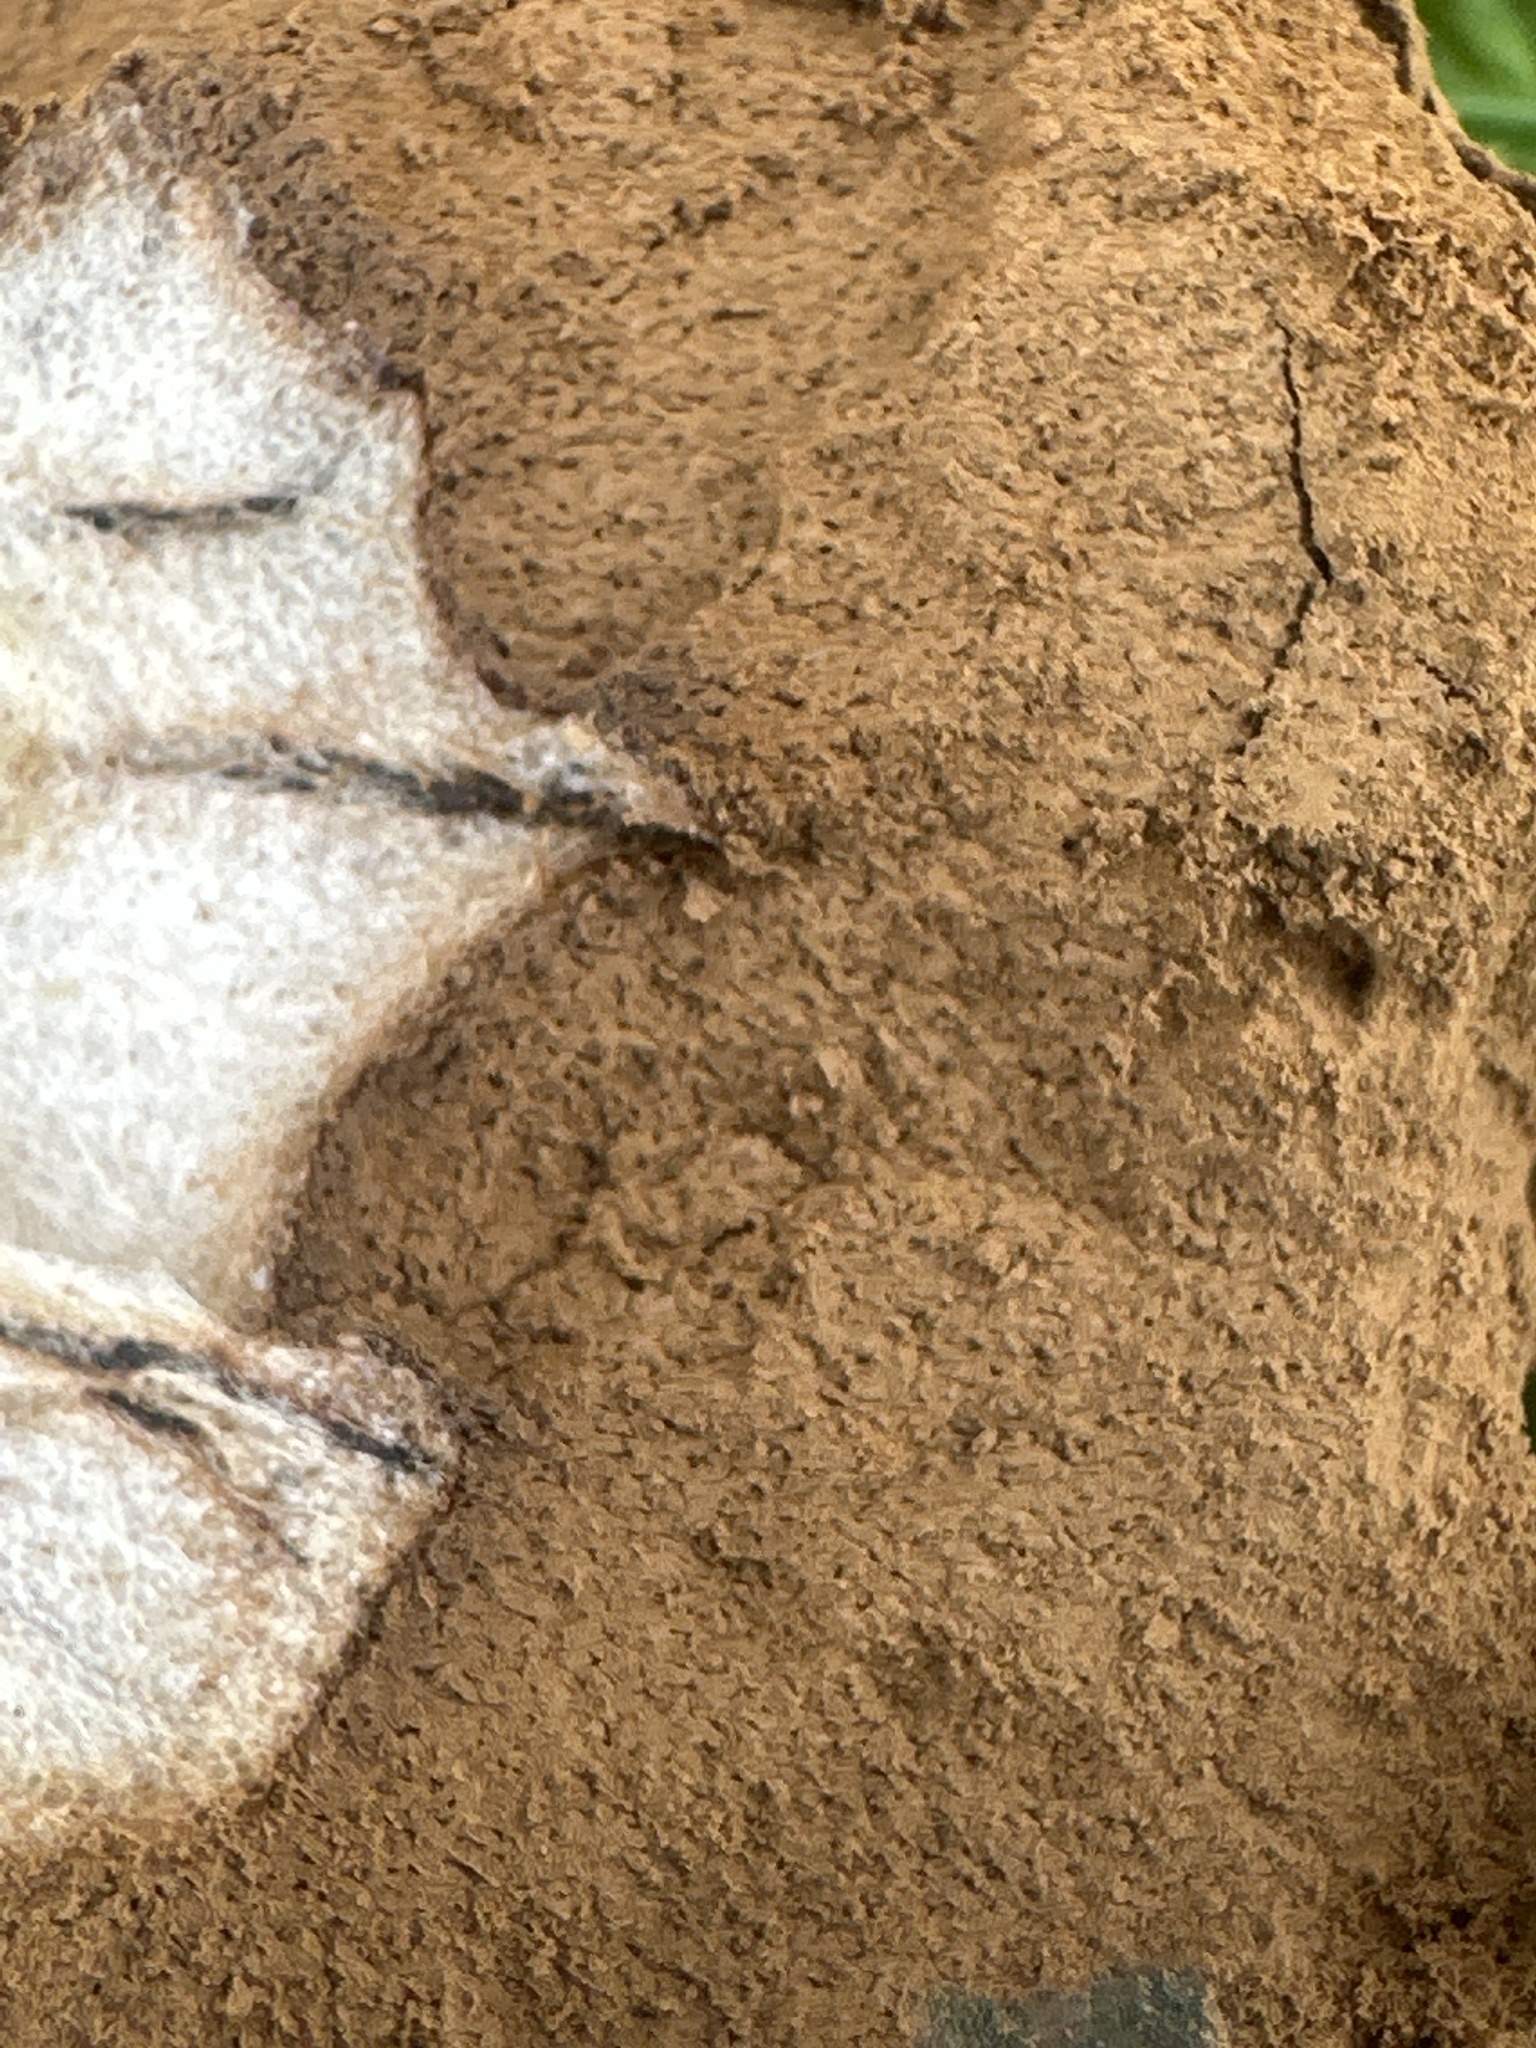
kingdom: Protozoa
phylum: Mycetozoa
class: Myxomycetes
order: Cribrariales
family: Tubiferaceae
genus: Reticularia
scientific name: Reticularia lycoperdon
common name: False puffball
